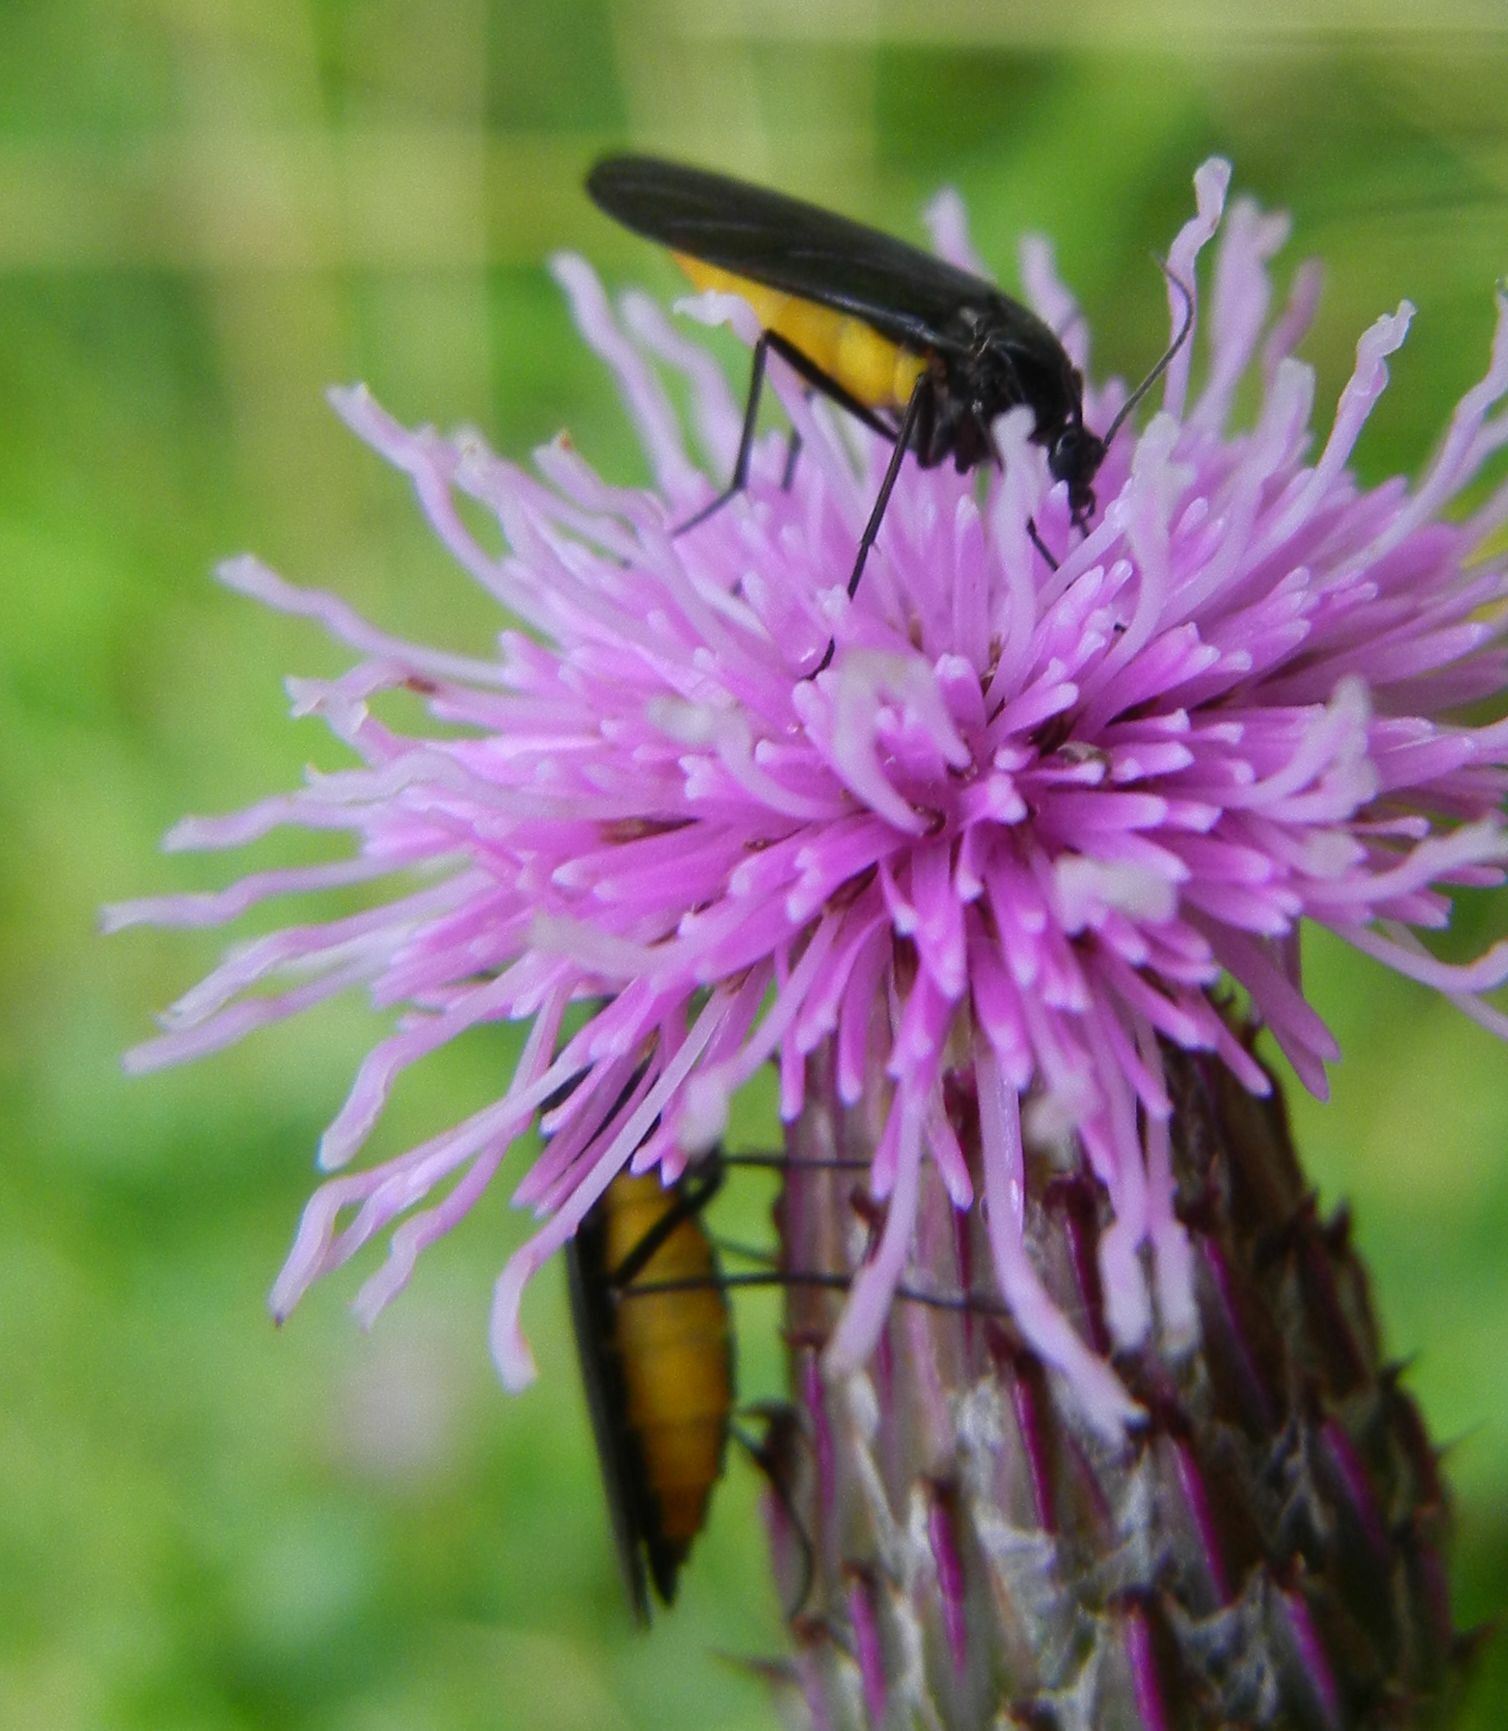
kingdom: Animalia
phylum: Arthropoda
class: Insecta
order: Diptera
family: Sciaridae
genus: Sciara
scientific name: Sciara hemerobioides
